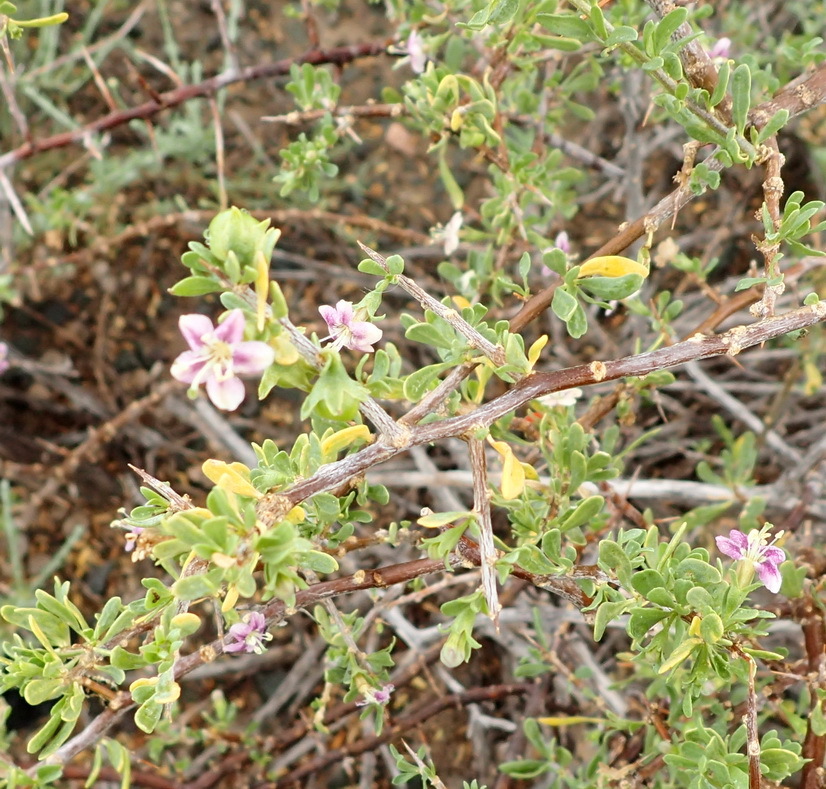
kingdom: Plantae
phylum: Tracheophyta
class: Magnoliopsida
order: Solanales
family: Solanaceae
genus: Lycium
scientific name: Lycium schizocalyx
